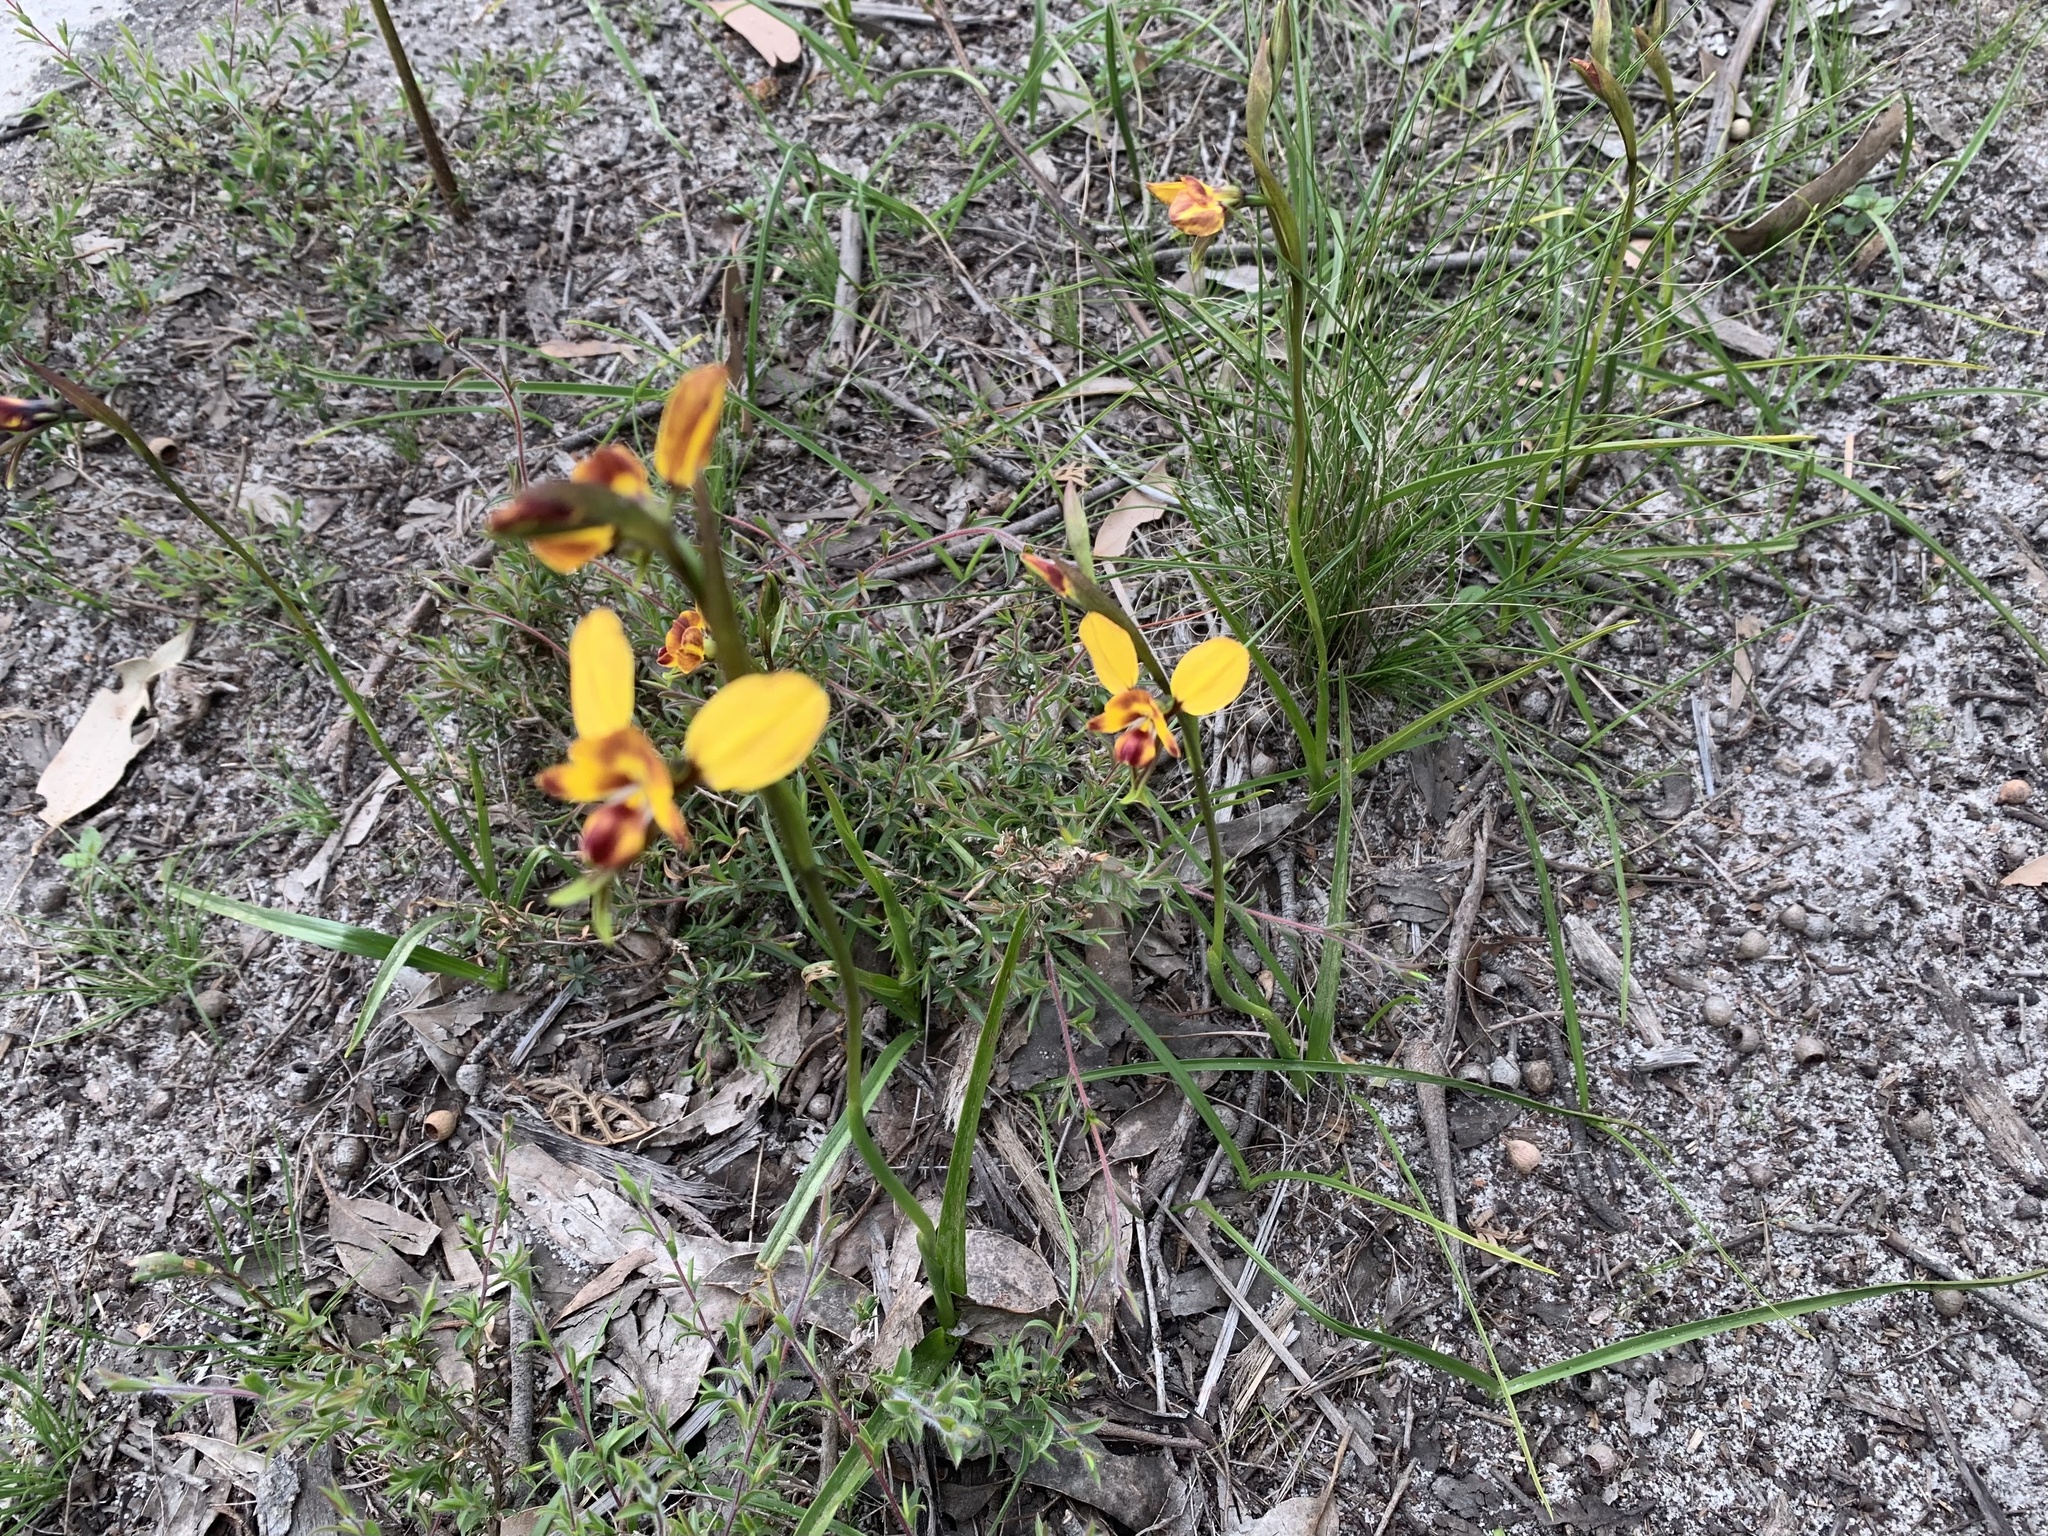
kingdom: Plantae
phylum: Tracheophyta
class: Liliopsida
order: Asparagales
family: Orchidaceae
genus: Diuris
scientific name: Diuris orientis
